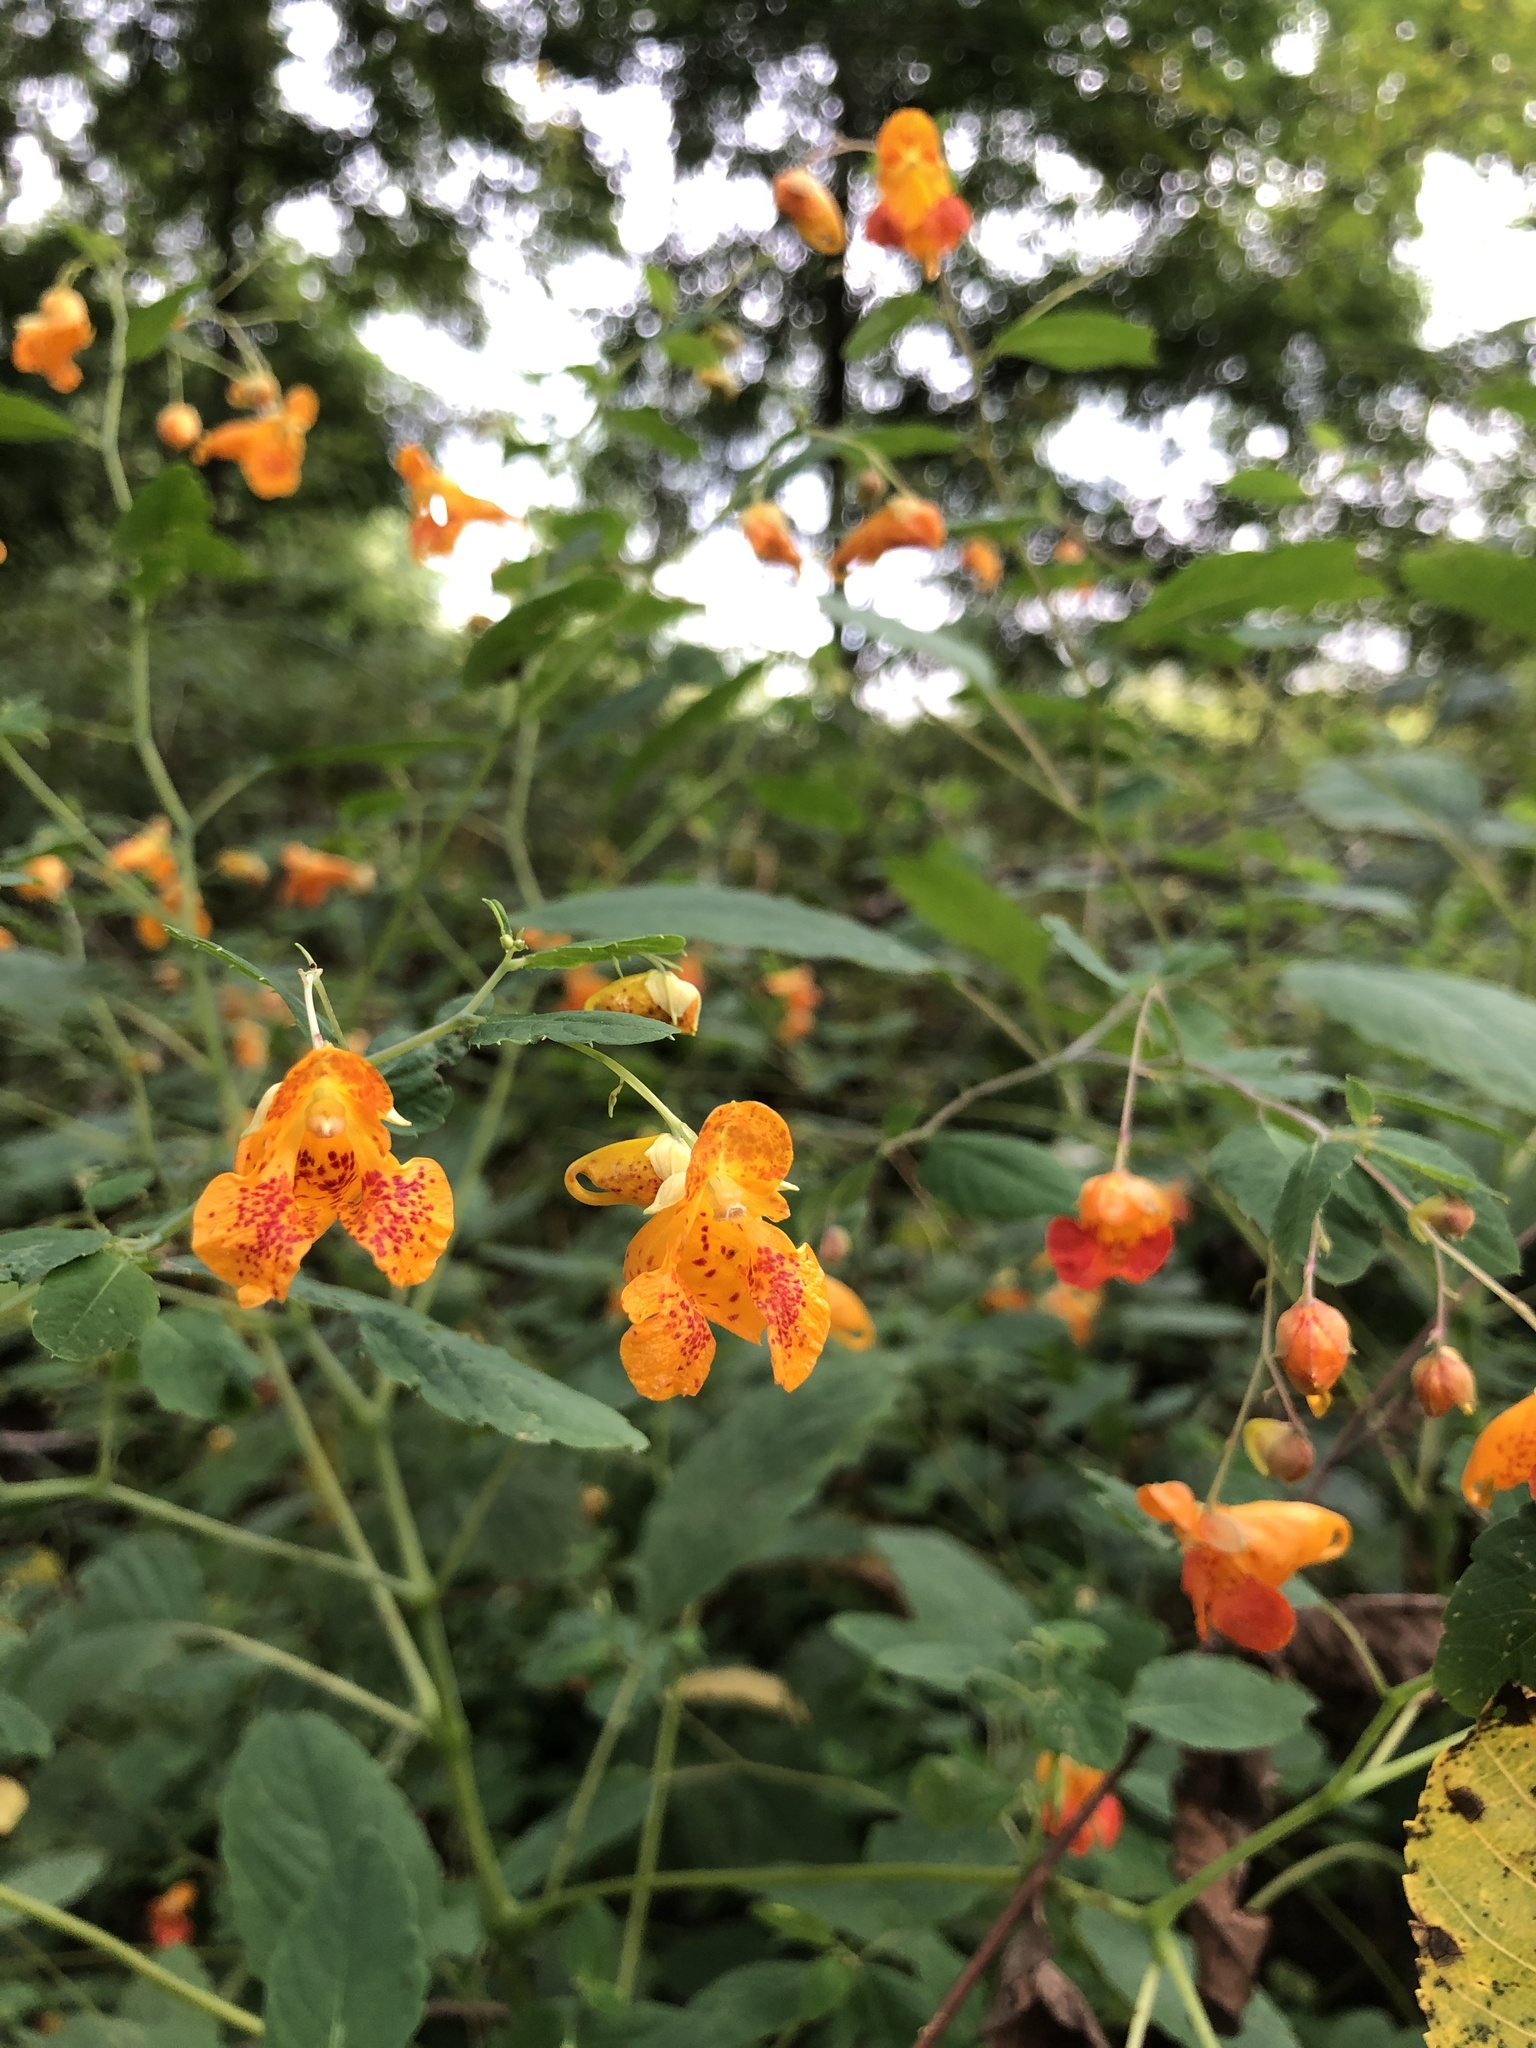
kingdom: Plantae
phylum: Tracheophyta
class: Magnoliopsida
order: Ericales
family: Balsaminaceae
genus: Impatiens
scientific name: Impatiens capensis
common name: Orange balsam
